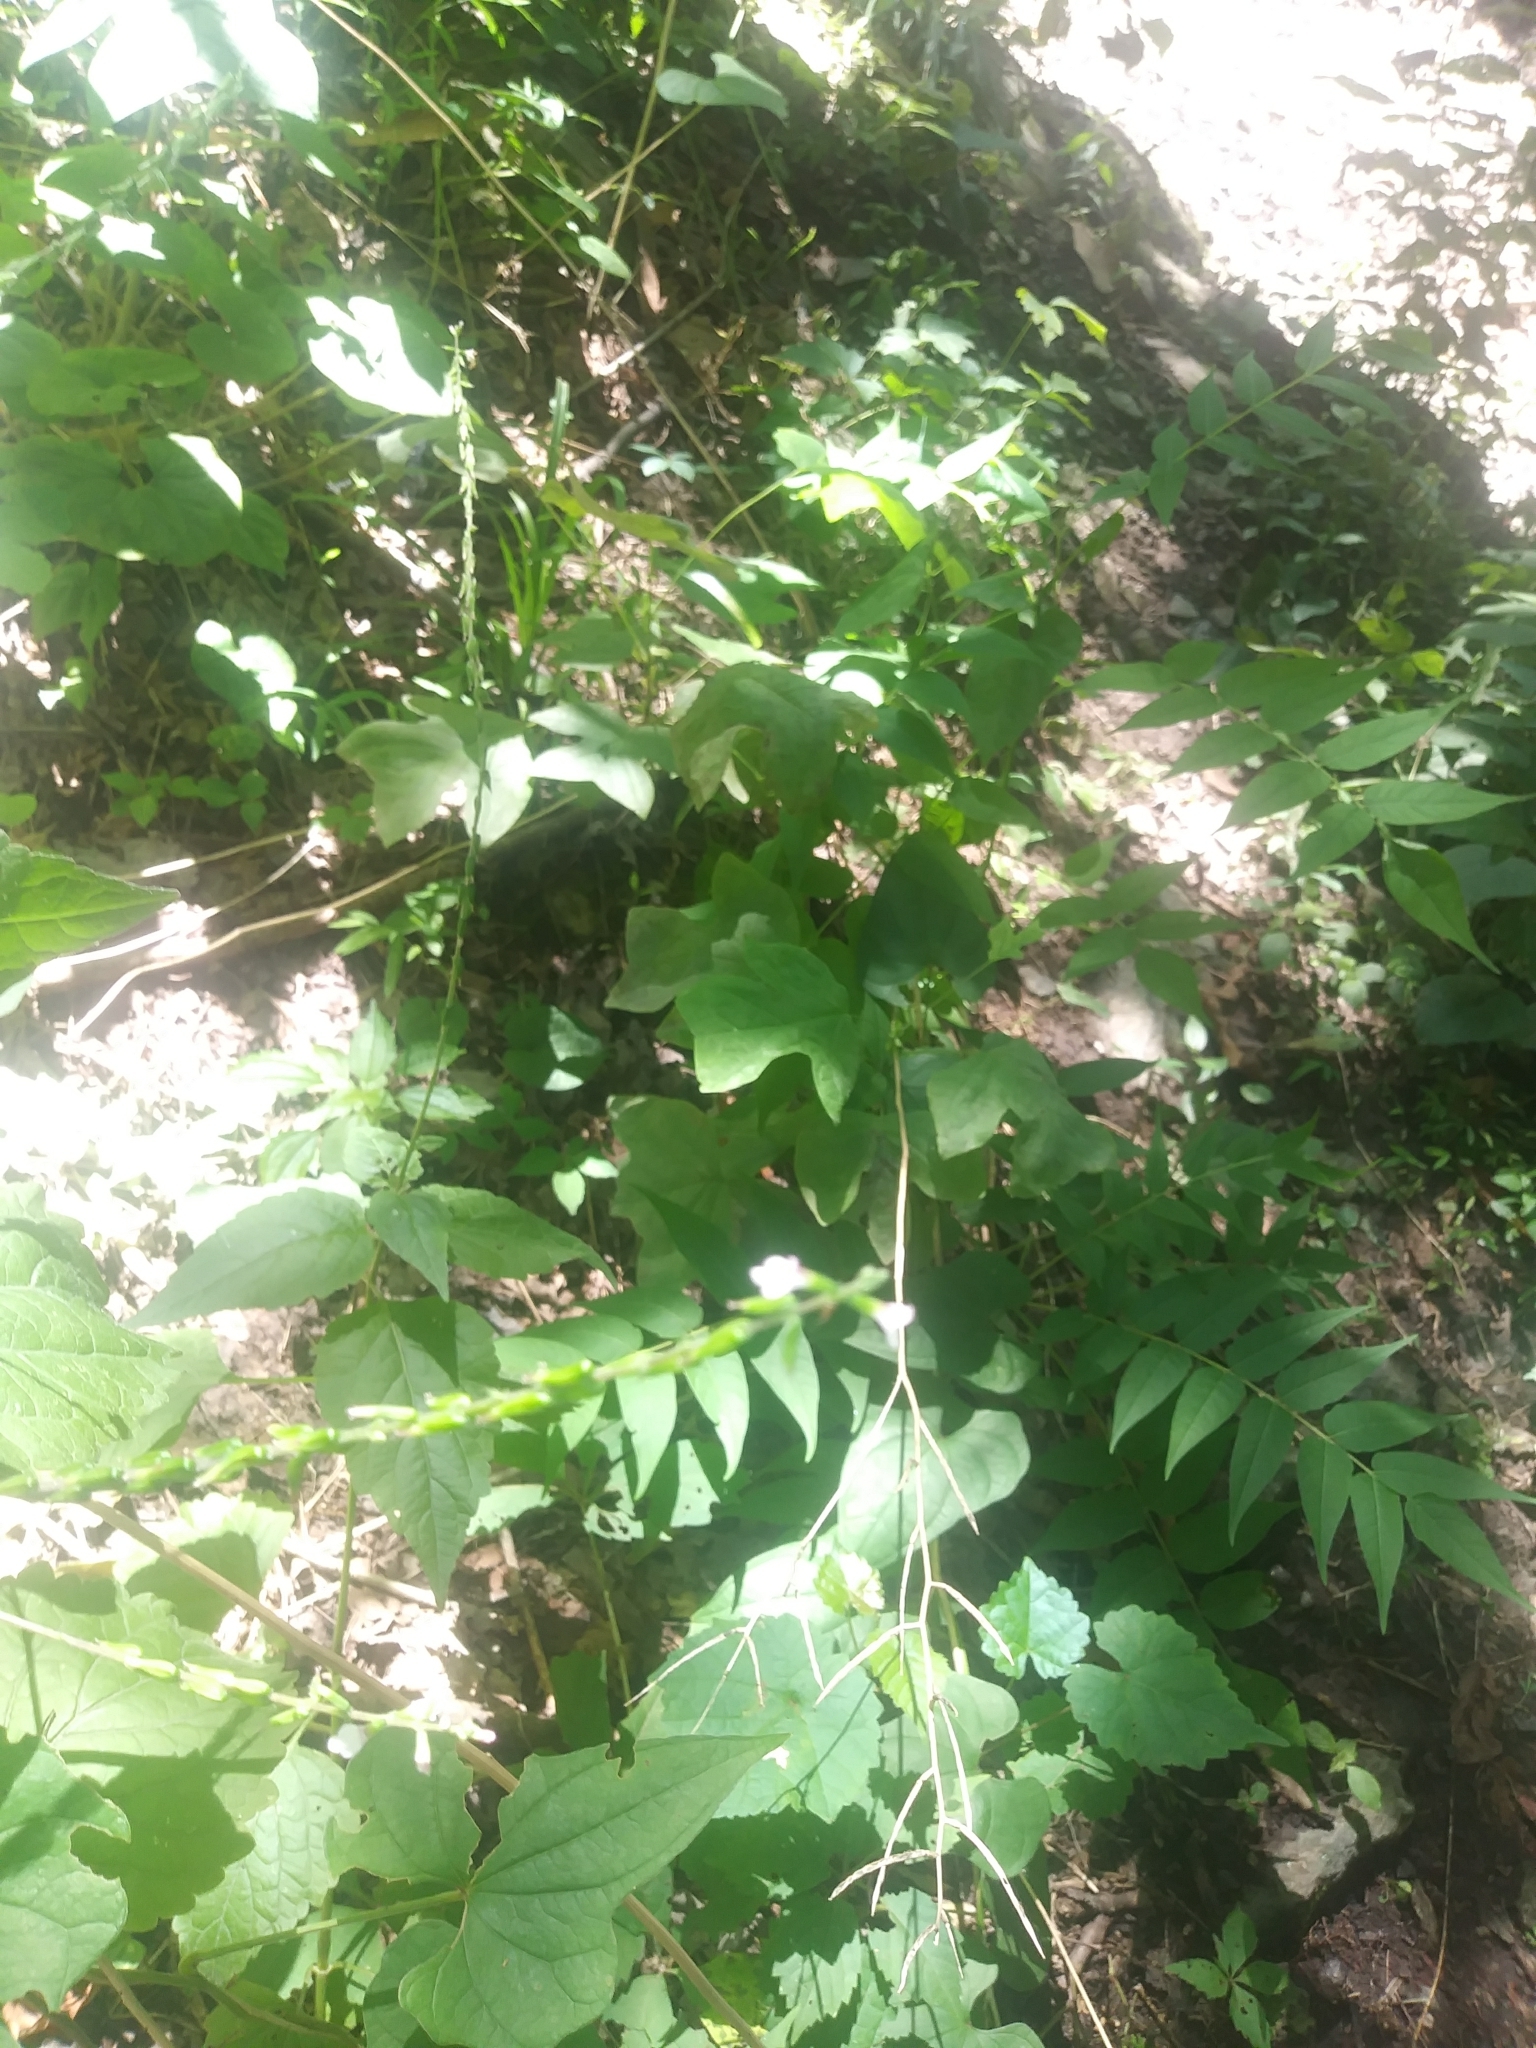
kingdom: Plantae
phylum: Tracheophyta
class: Magnoliopsida
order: Lamiales
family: Phrymaceae
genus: Phryma
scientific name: Phryma leptostachya
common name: American lopseed
